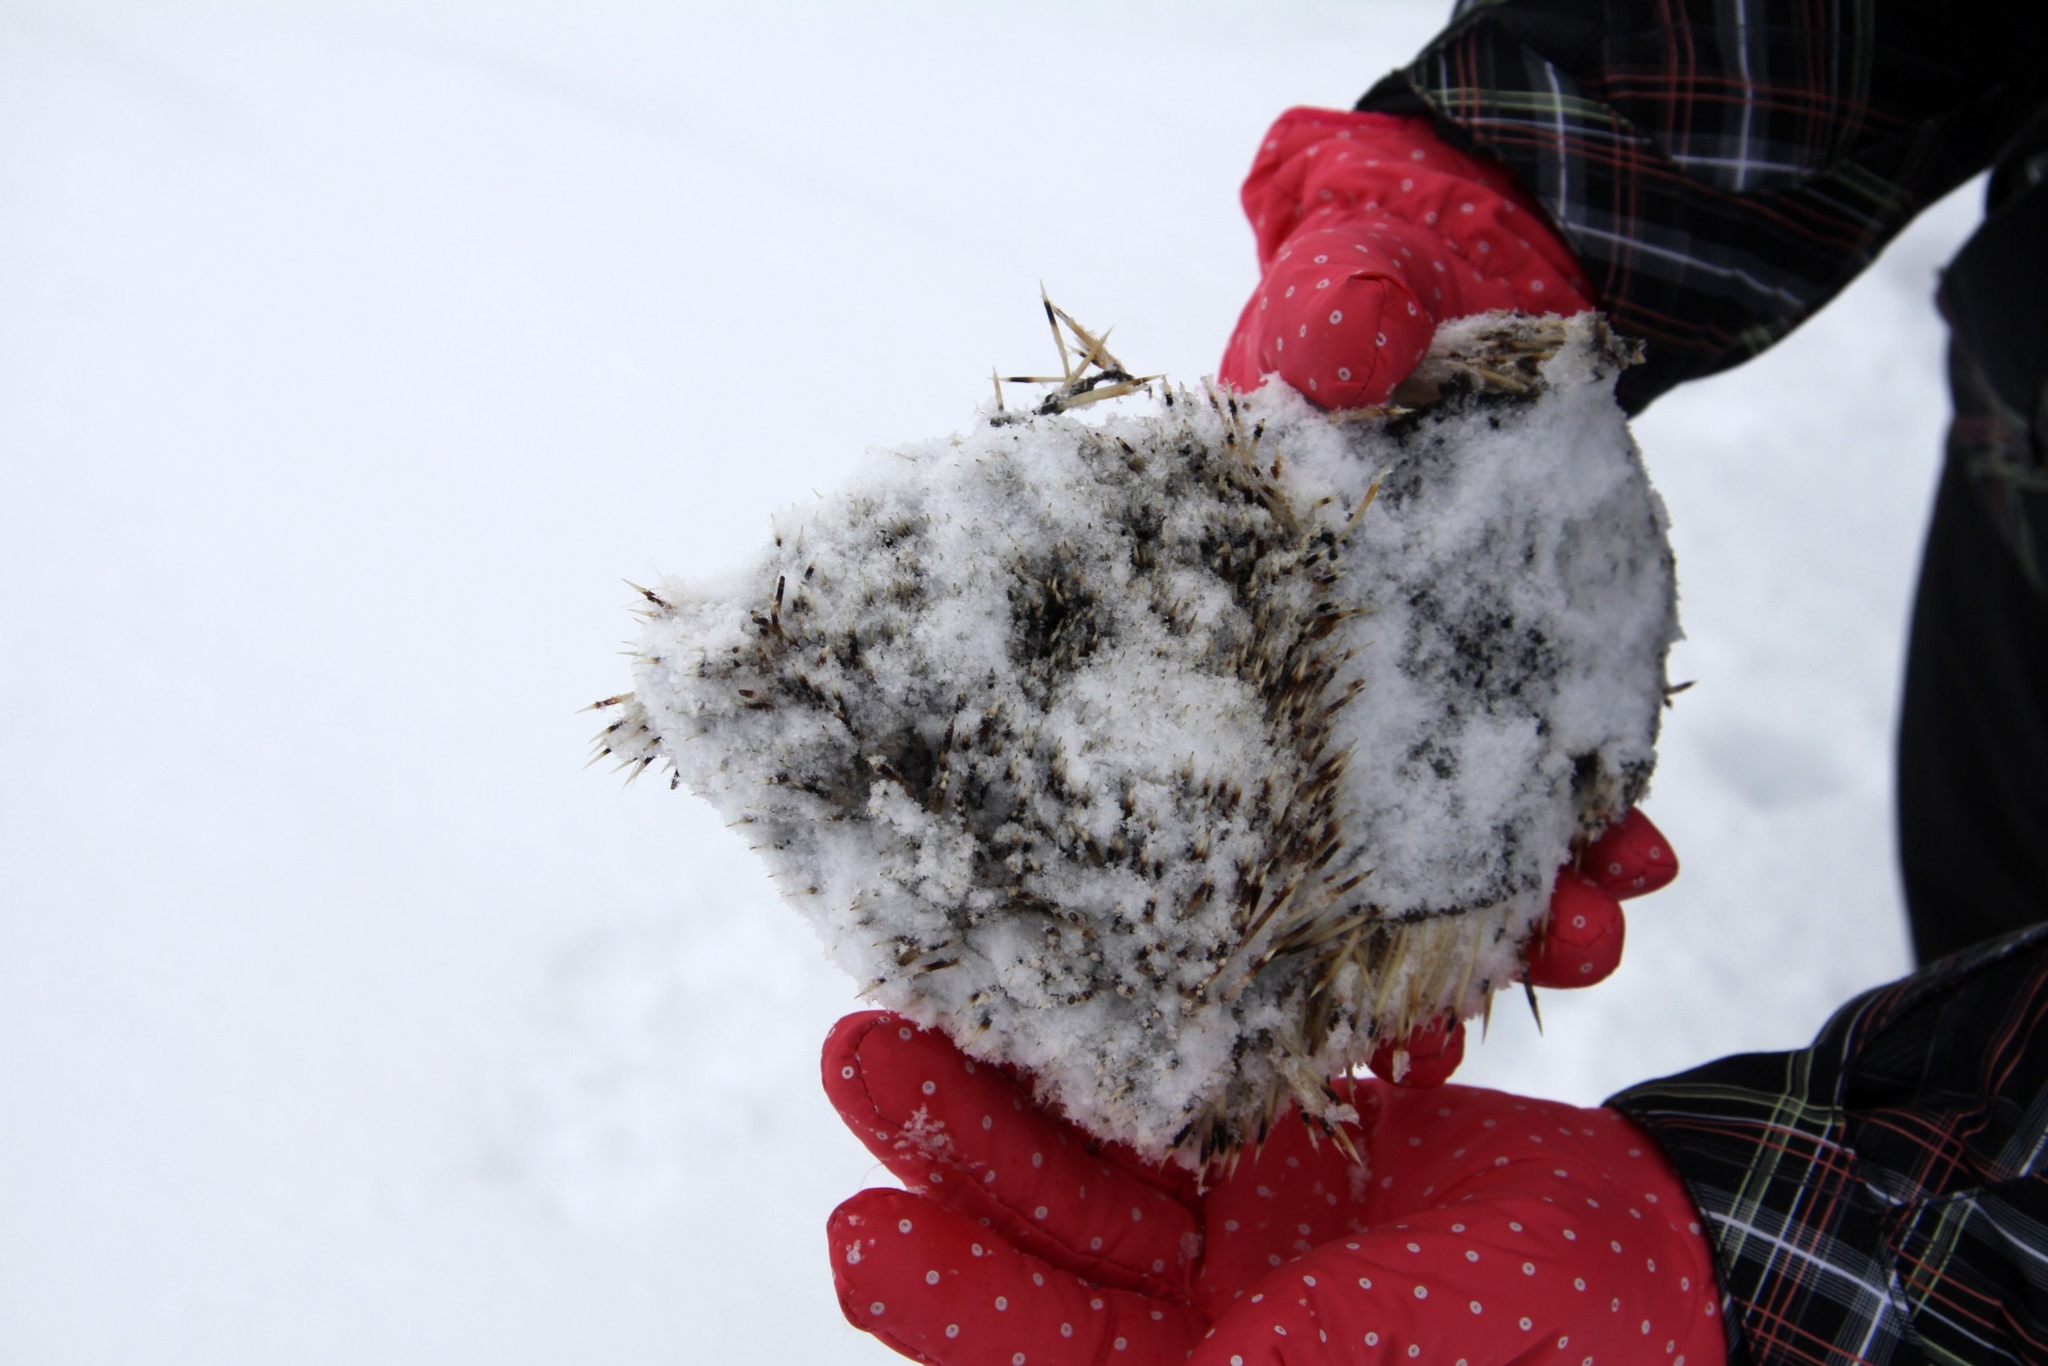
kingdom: Animalia
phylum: Chordata
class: Mammalia
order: Erinaceomorpha
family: Erinaceidae
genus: Erinaceus
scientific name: Erinaceus roumanicus
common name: Northern white-breasted hedgehog
